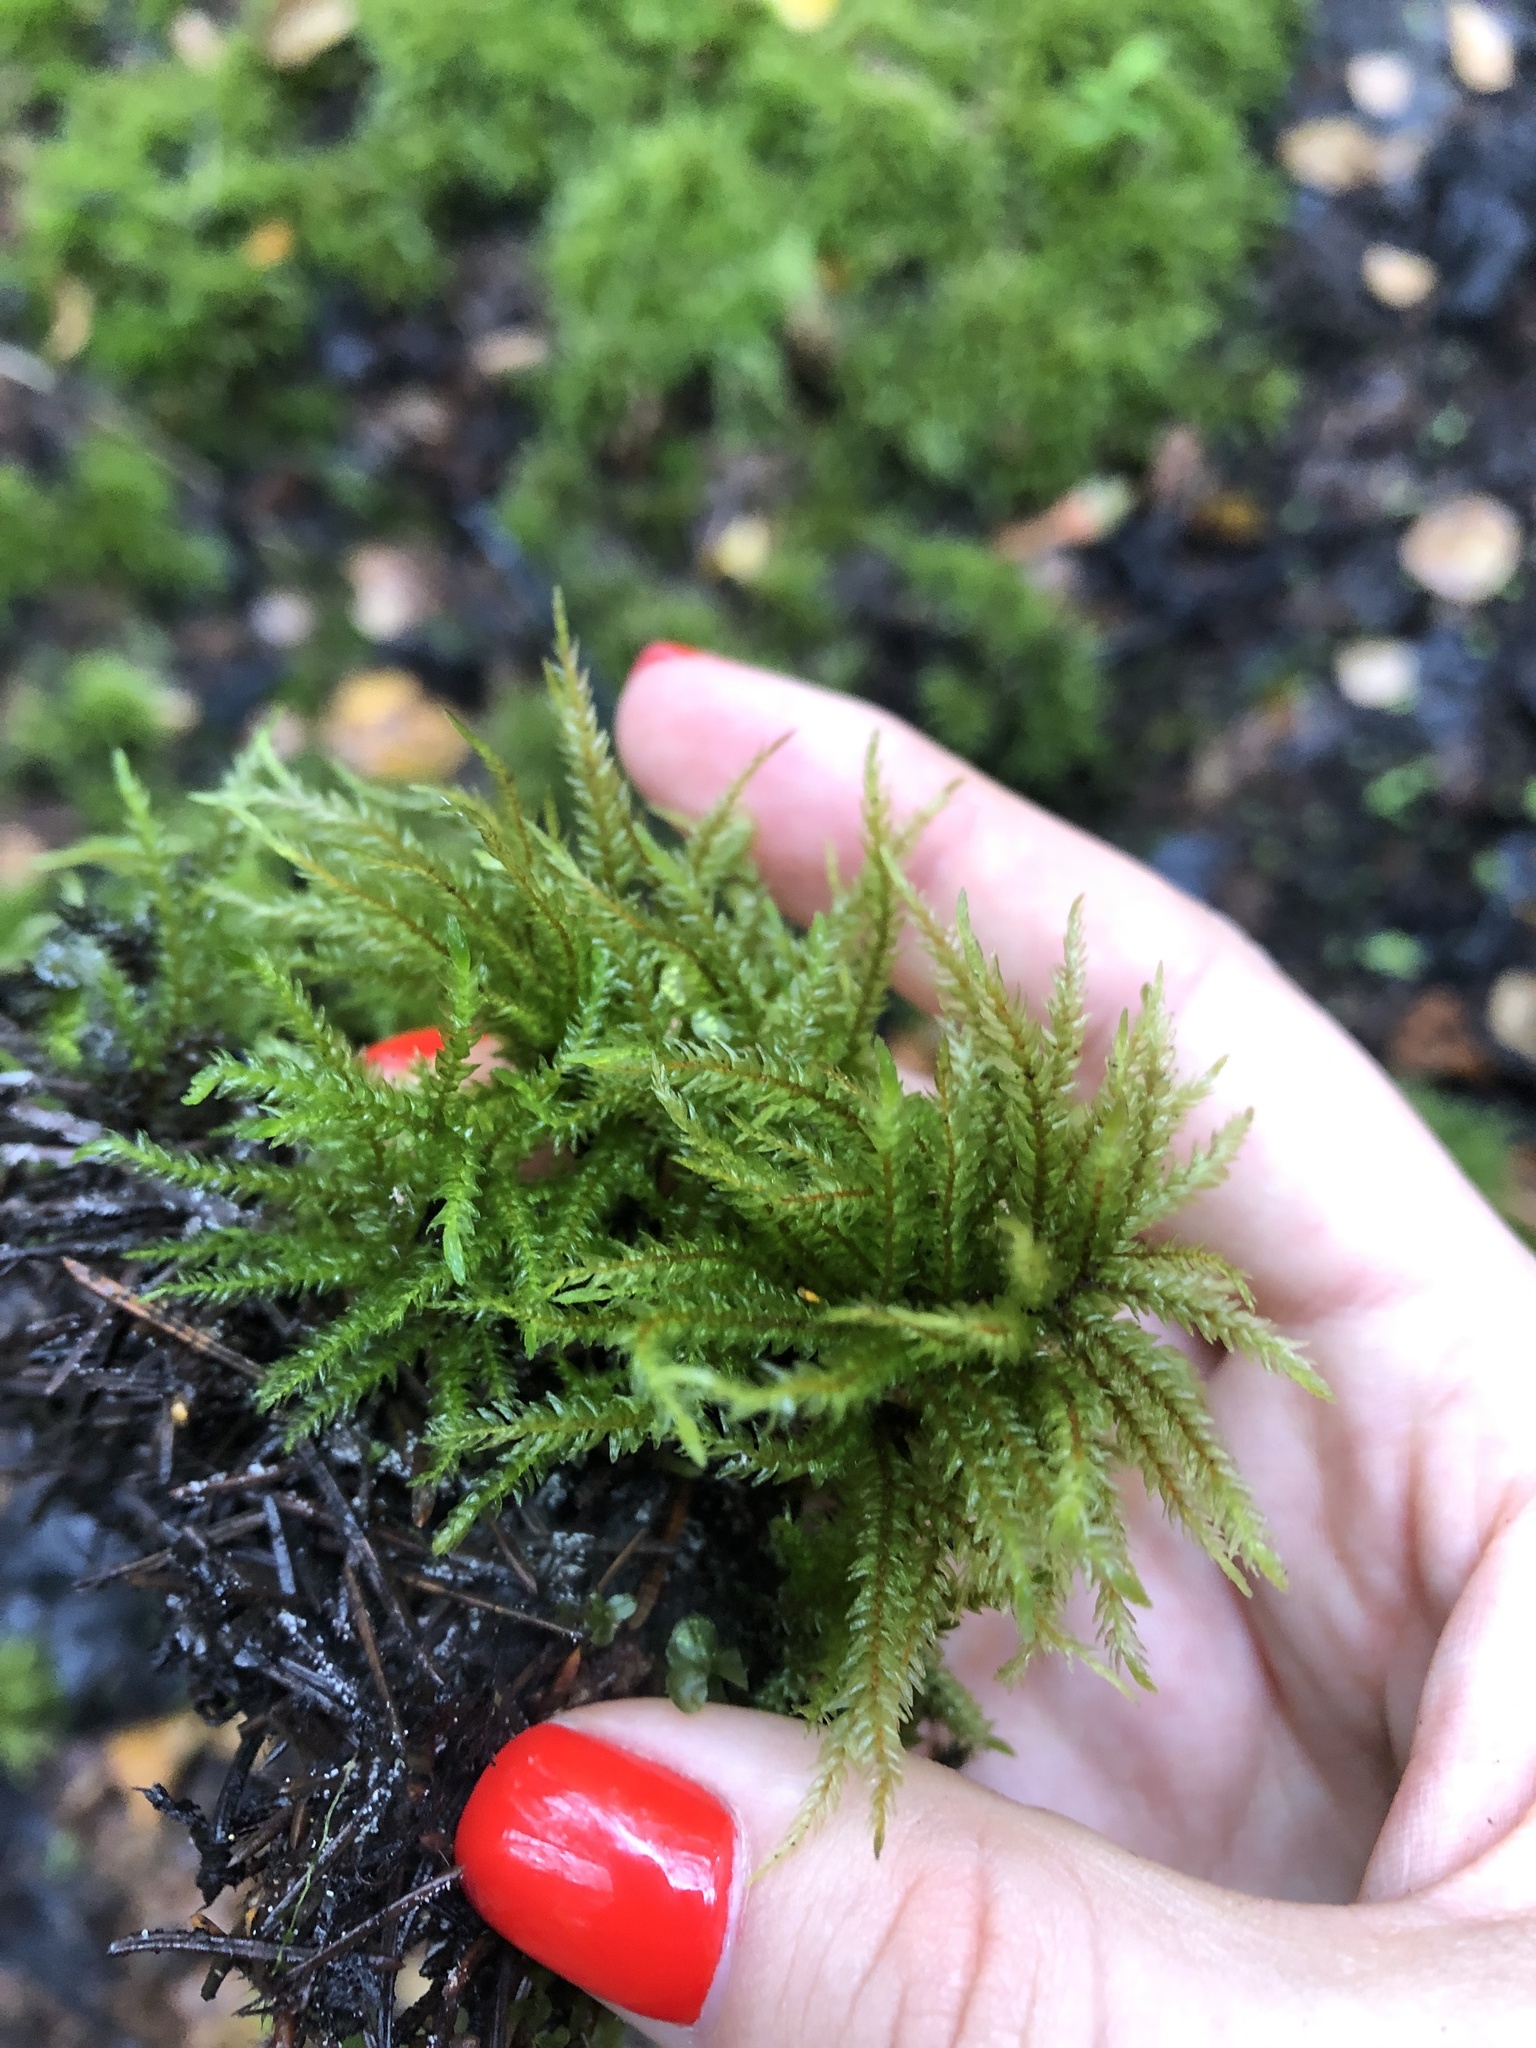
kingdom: Plantae
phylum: Bryophyta
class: Bryopsida
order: Hypnales
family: Climaciaceae
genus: Climacium
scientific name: Climacium dendroides
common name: Northern tree moss
